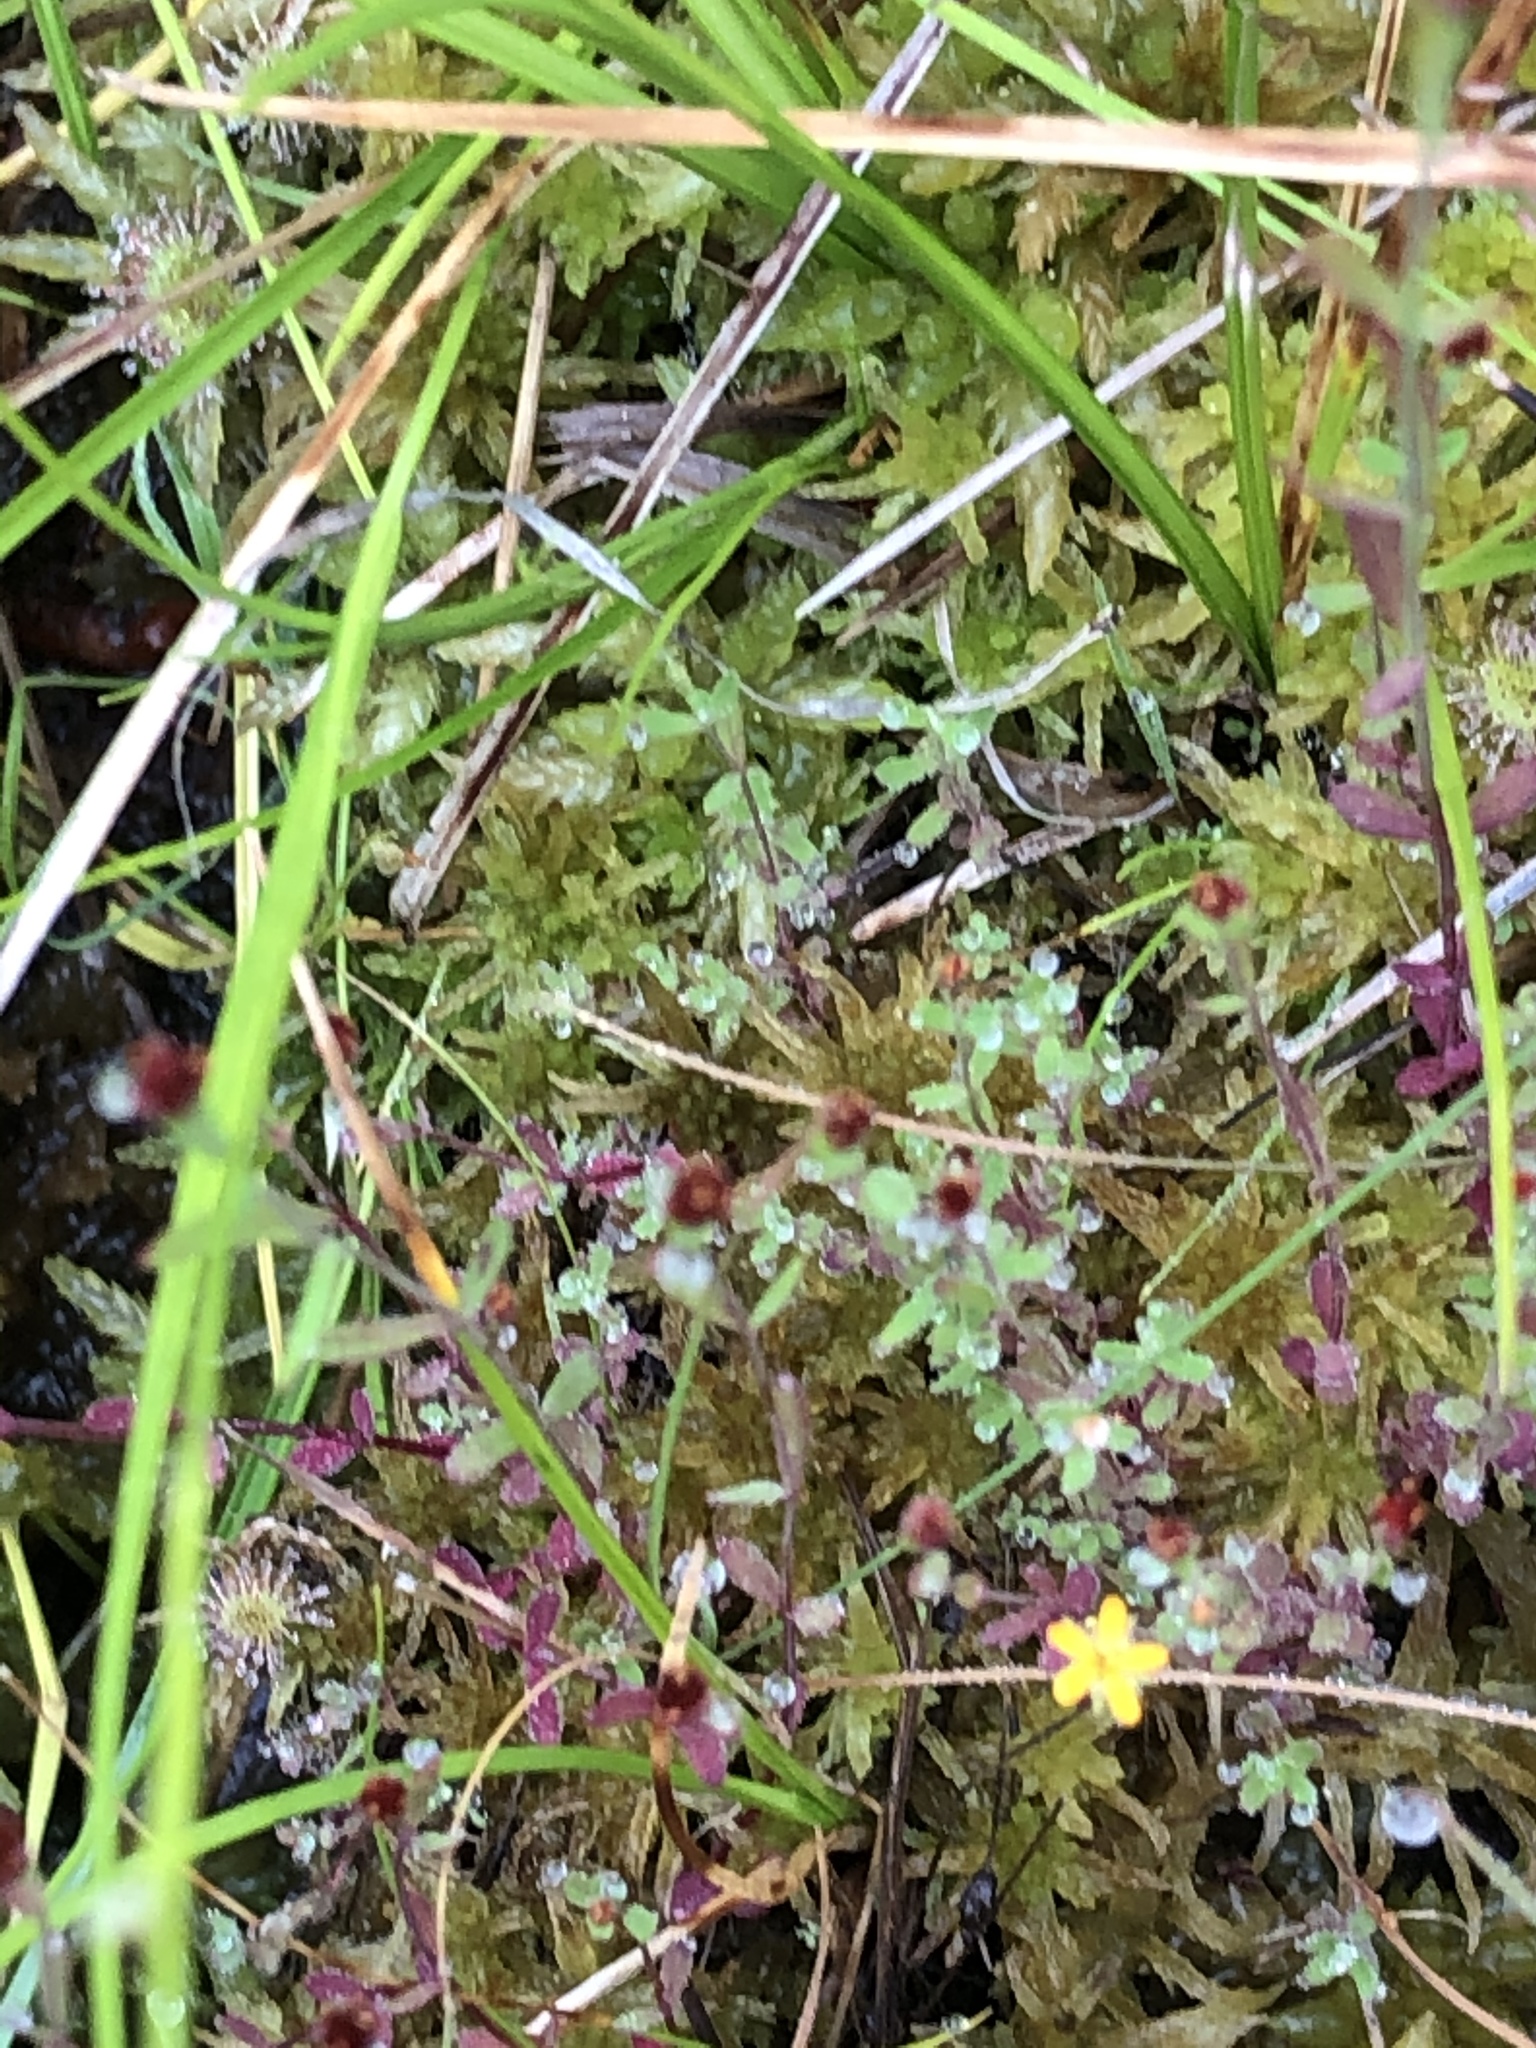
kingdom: Plantae
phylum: Tracheophyta
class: Magnoliopsida
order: Malpighiales
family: Hypericaceae
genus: Hypericum
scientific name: Hypericum canadense
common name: Irish st. john's-wort
